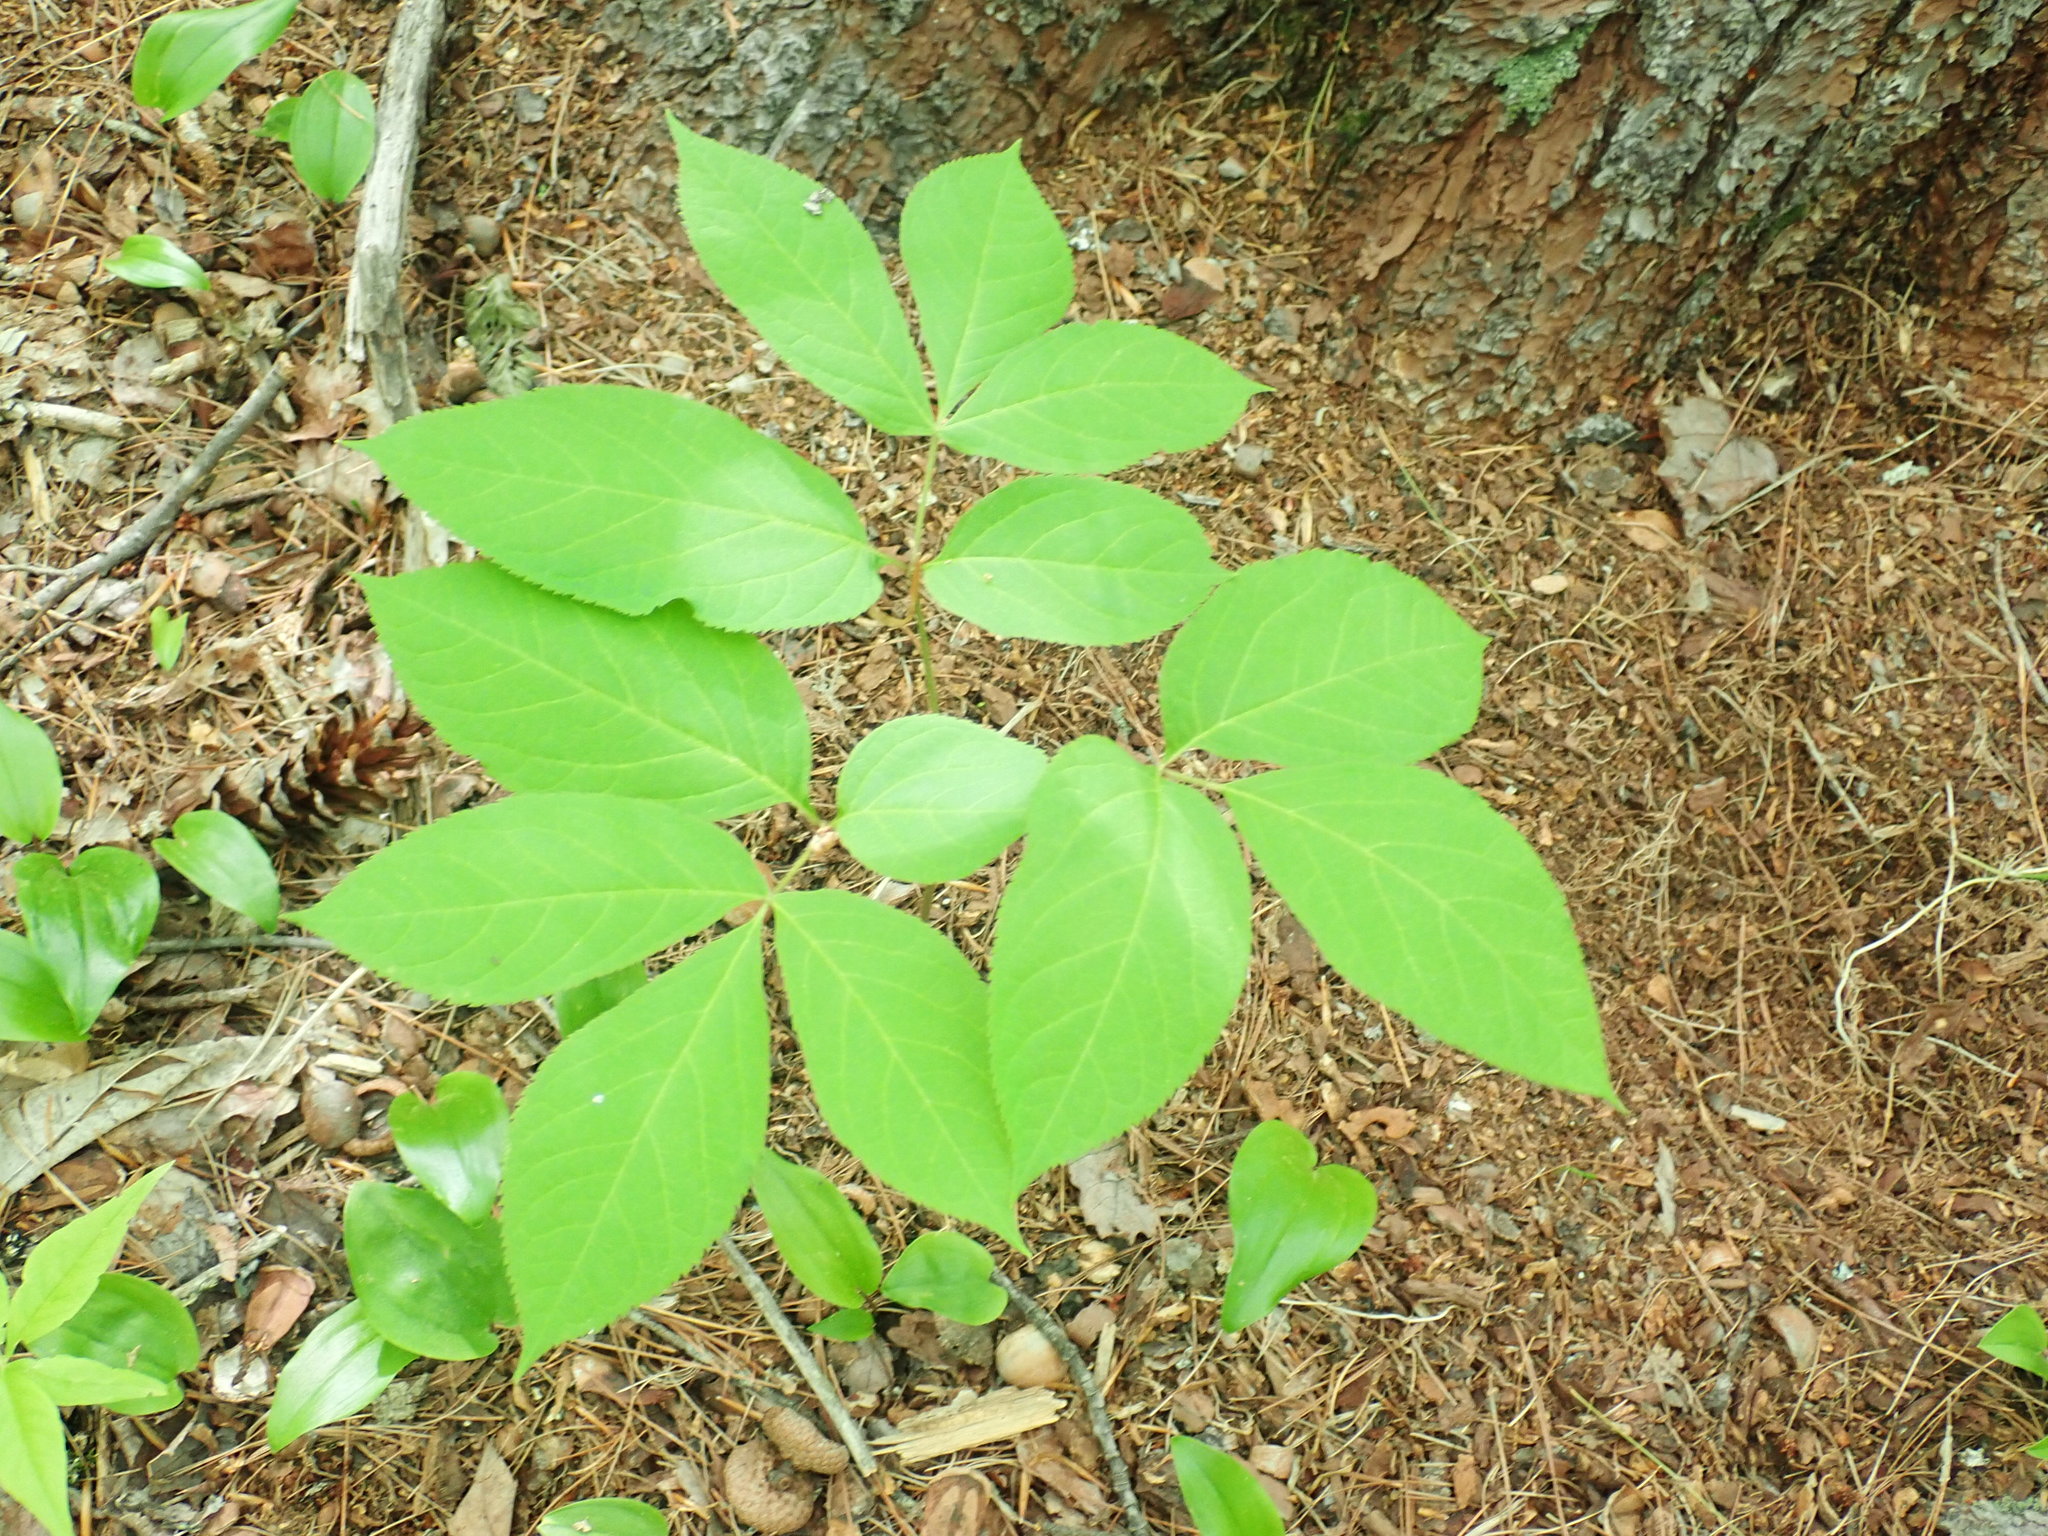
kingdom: Plantae
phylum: Tracheophyta
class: Magnoliopsida
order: Apiales
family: Araliaceae
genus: Aralia
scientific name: Aralia nudicaulis
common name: Wild sarsaparilla
